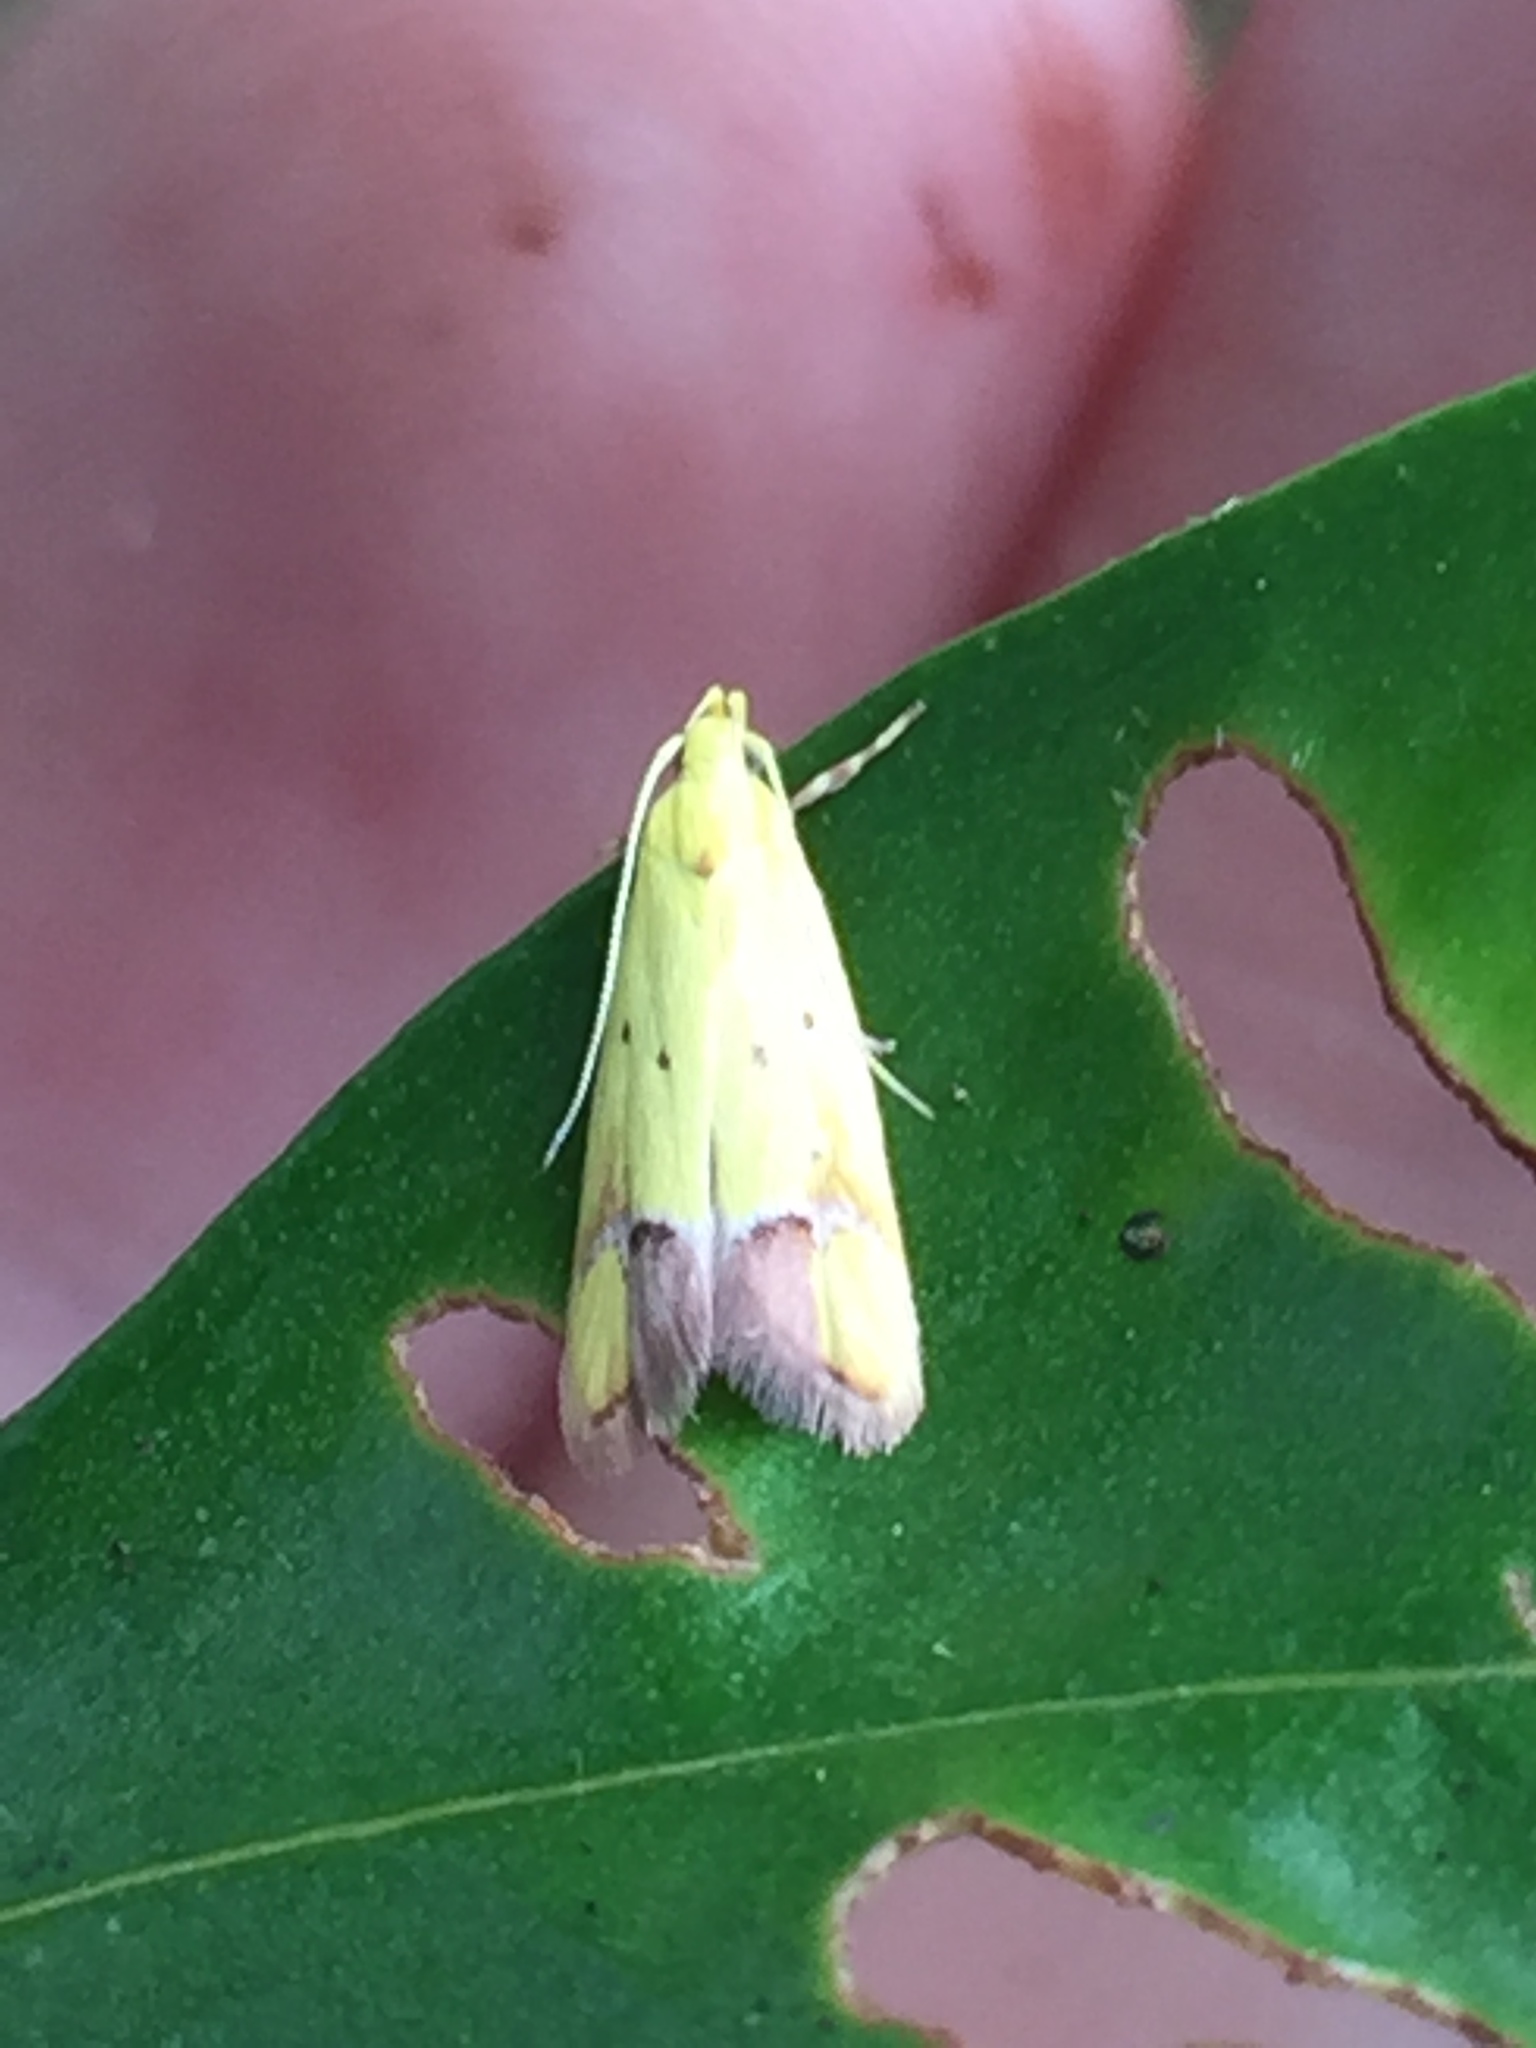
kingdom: Animalia
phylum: Arthropoda
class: Insecta
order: Lepidoptera
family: Oecophoridae
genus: Gymnobathra
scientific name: Gymnobathra flavidella
